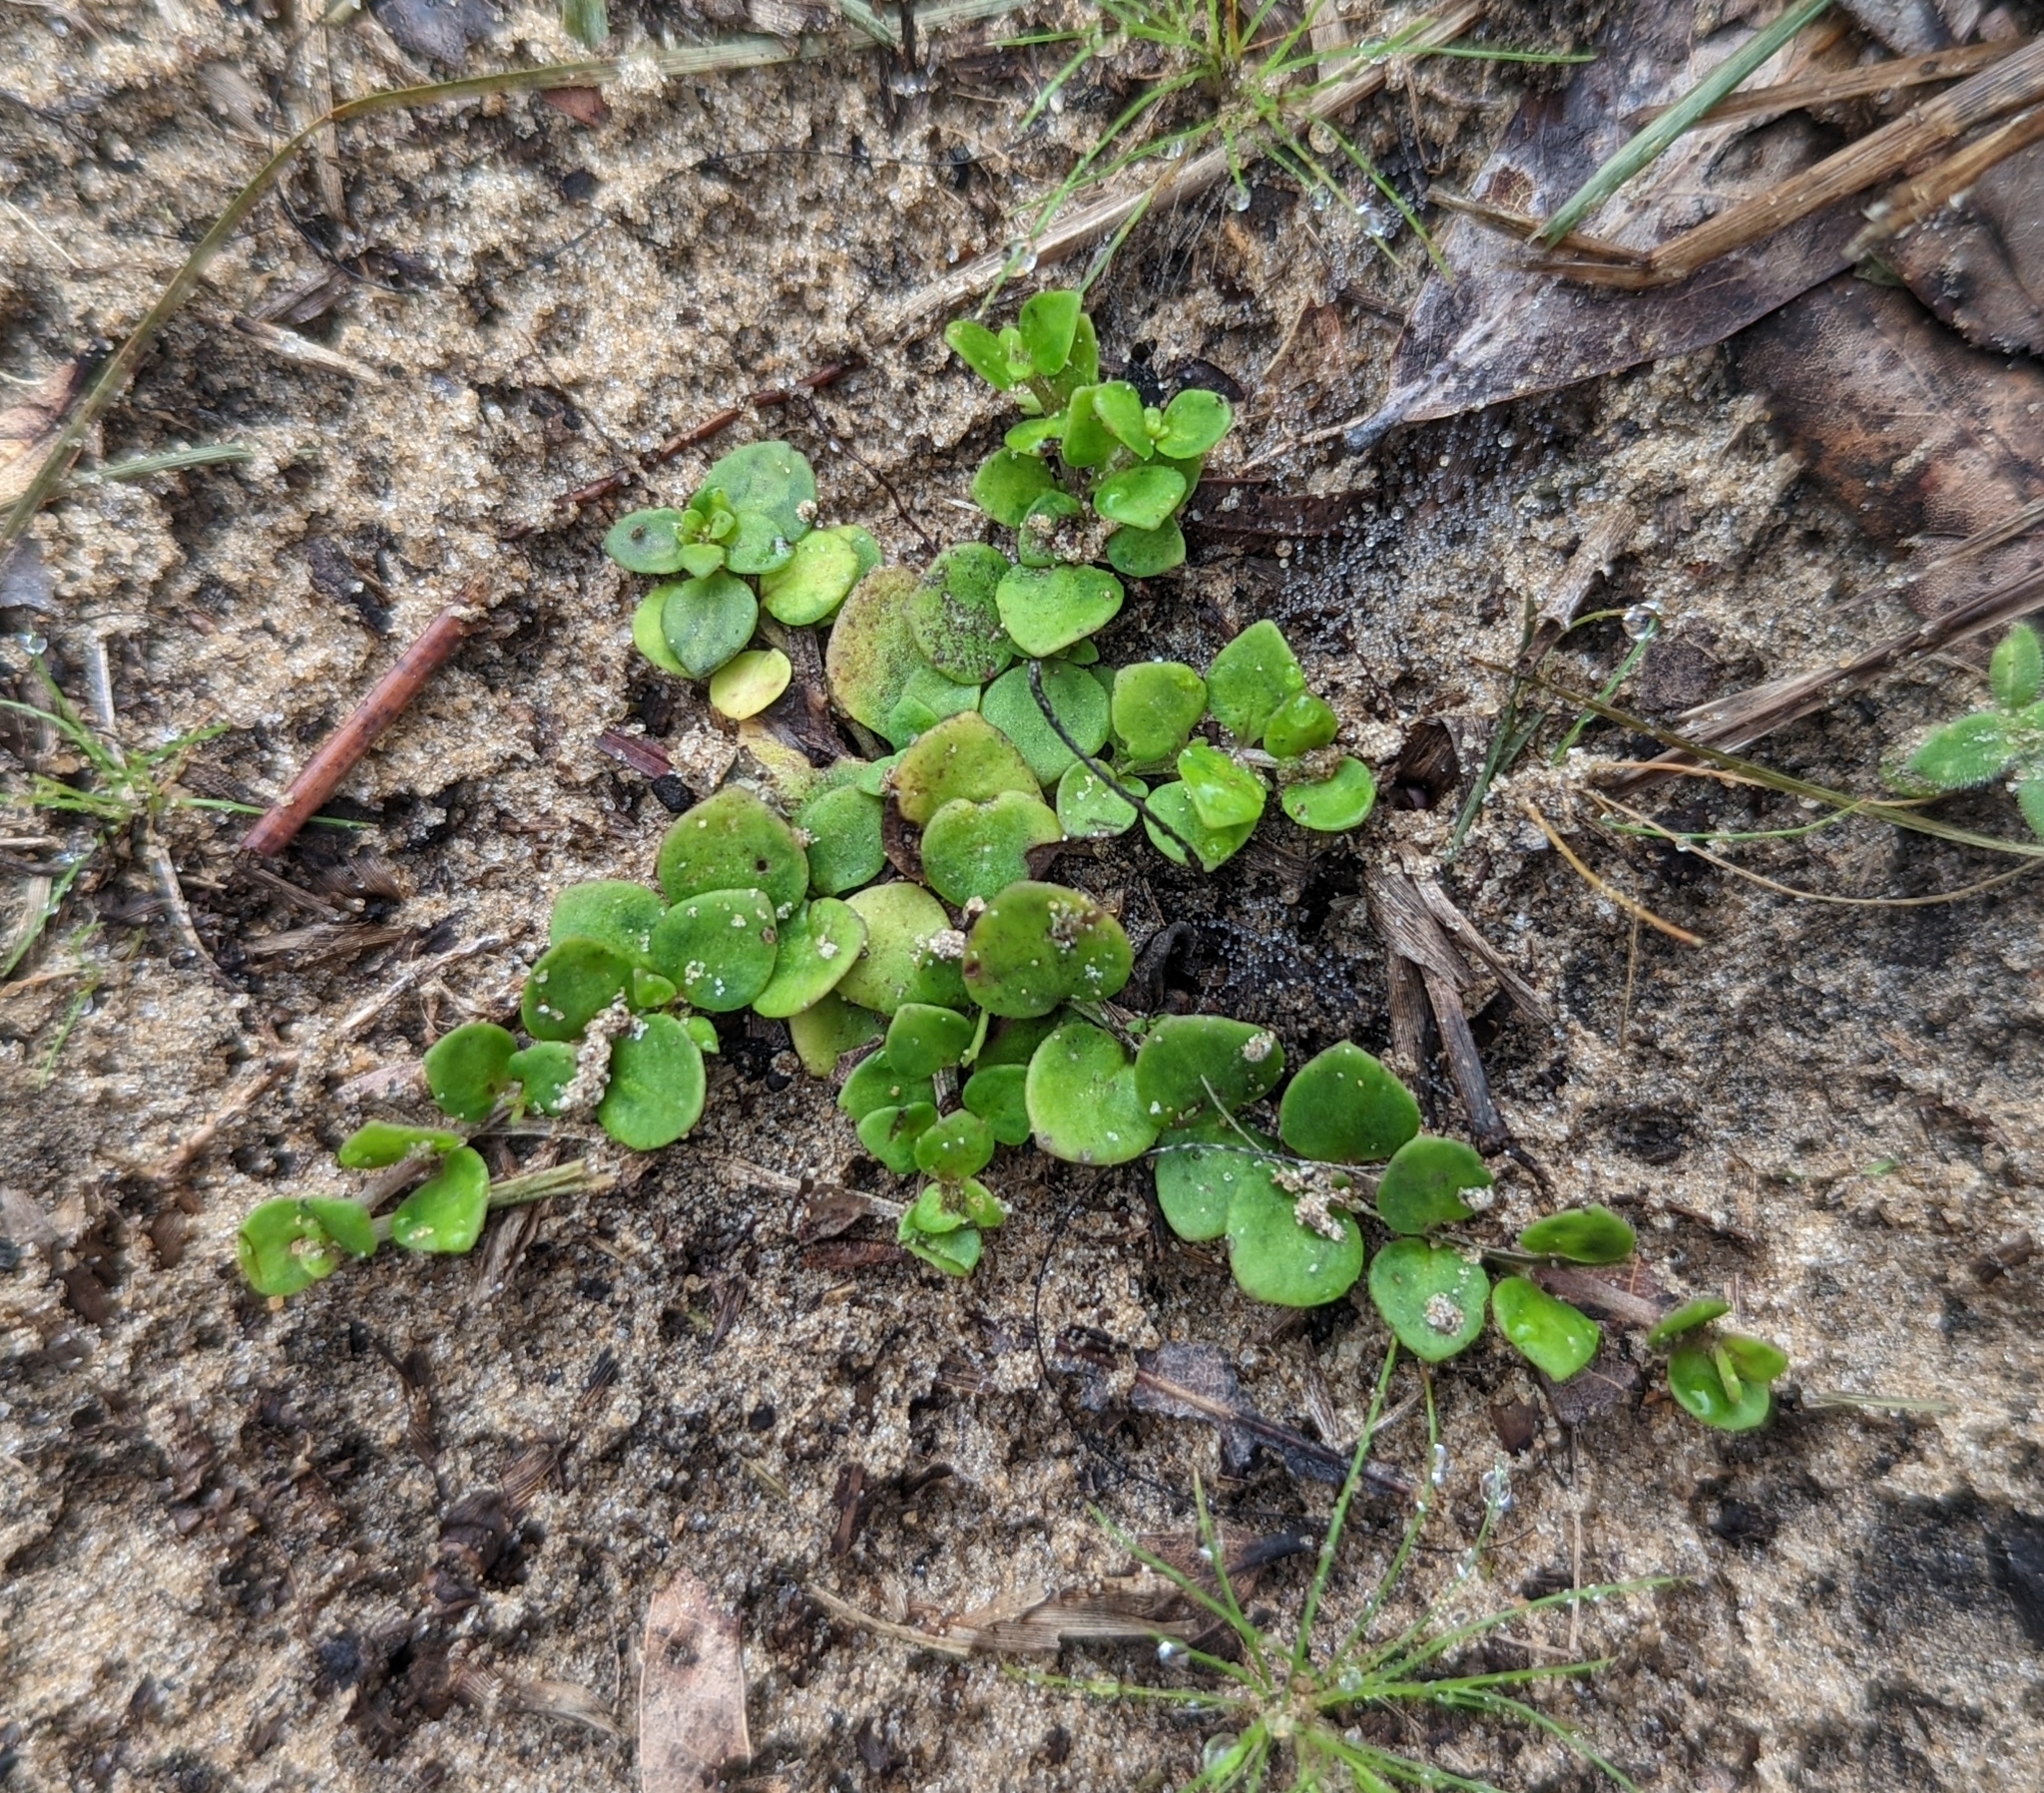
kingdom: Plantae
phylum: Tracheophyta
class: Magnoliopsida
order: Gentianales
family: Rubiaceae
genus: Houstonia
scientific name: Houstonia procumbens
